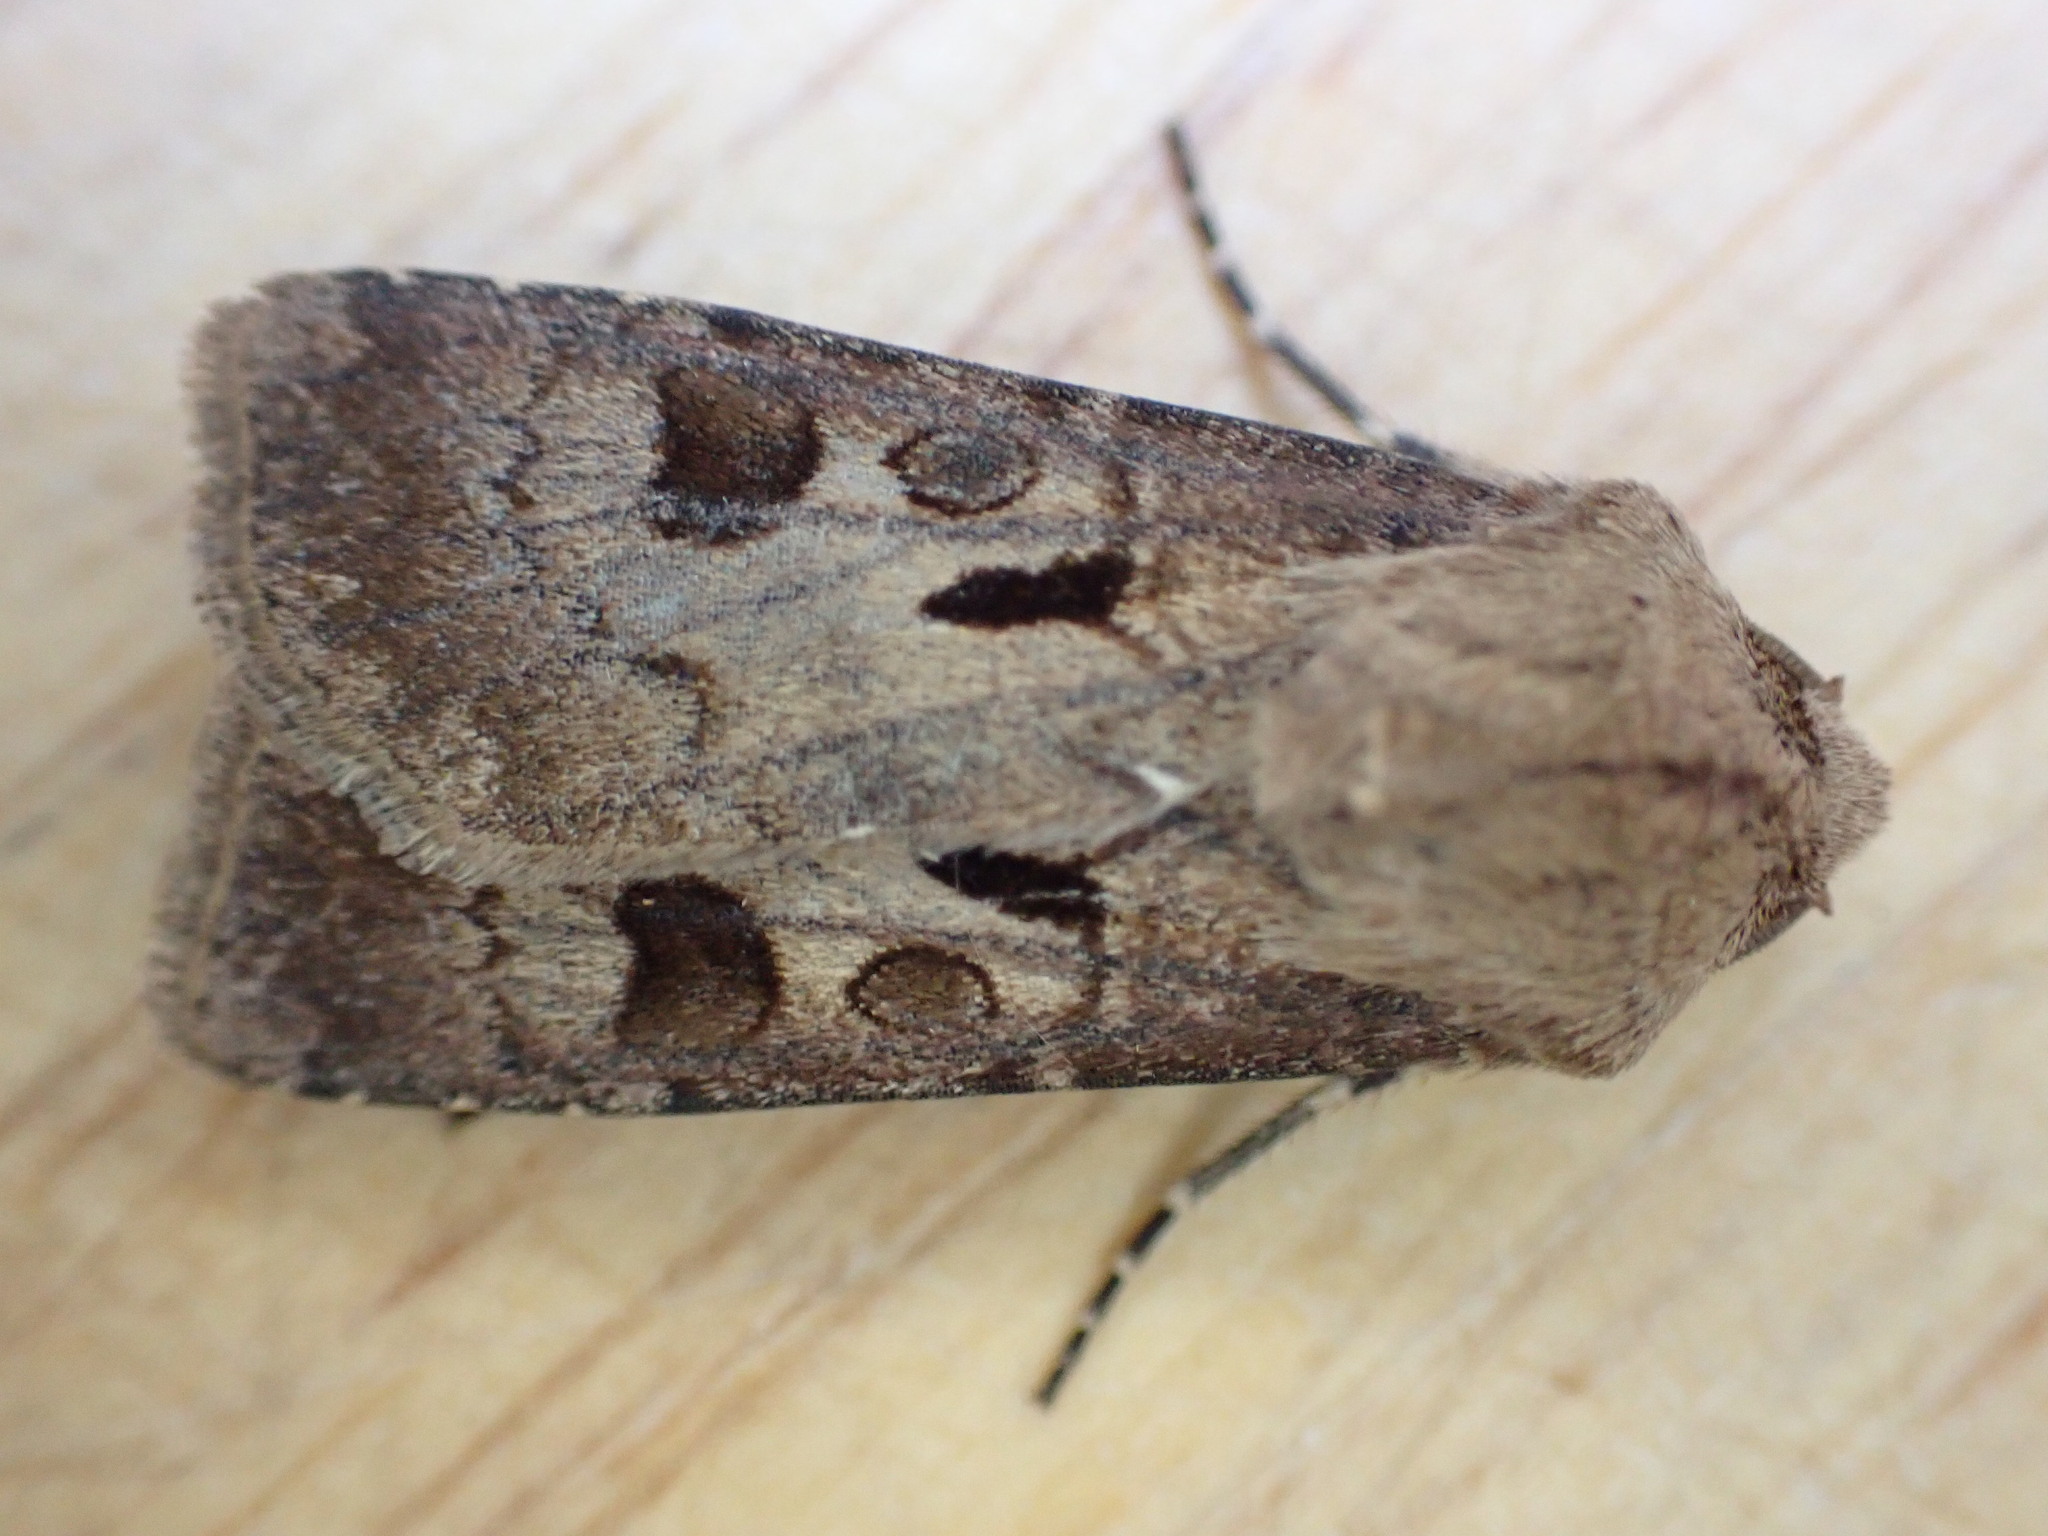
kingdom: Animalia
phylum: Arthropoda
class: Insecta
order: Lepidoptera
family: Noctuidae
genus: Agrotis
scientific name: Agrotis exclamationis
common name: Heart and dart
